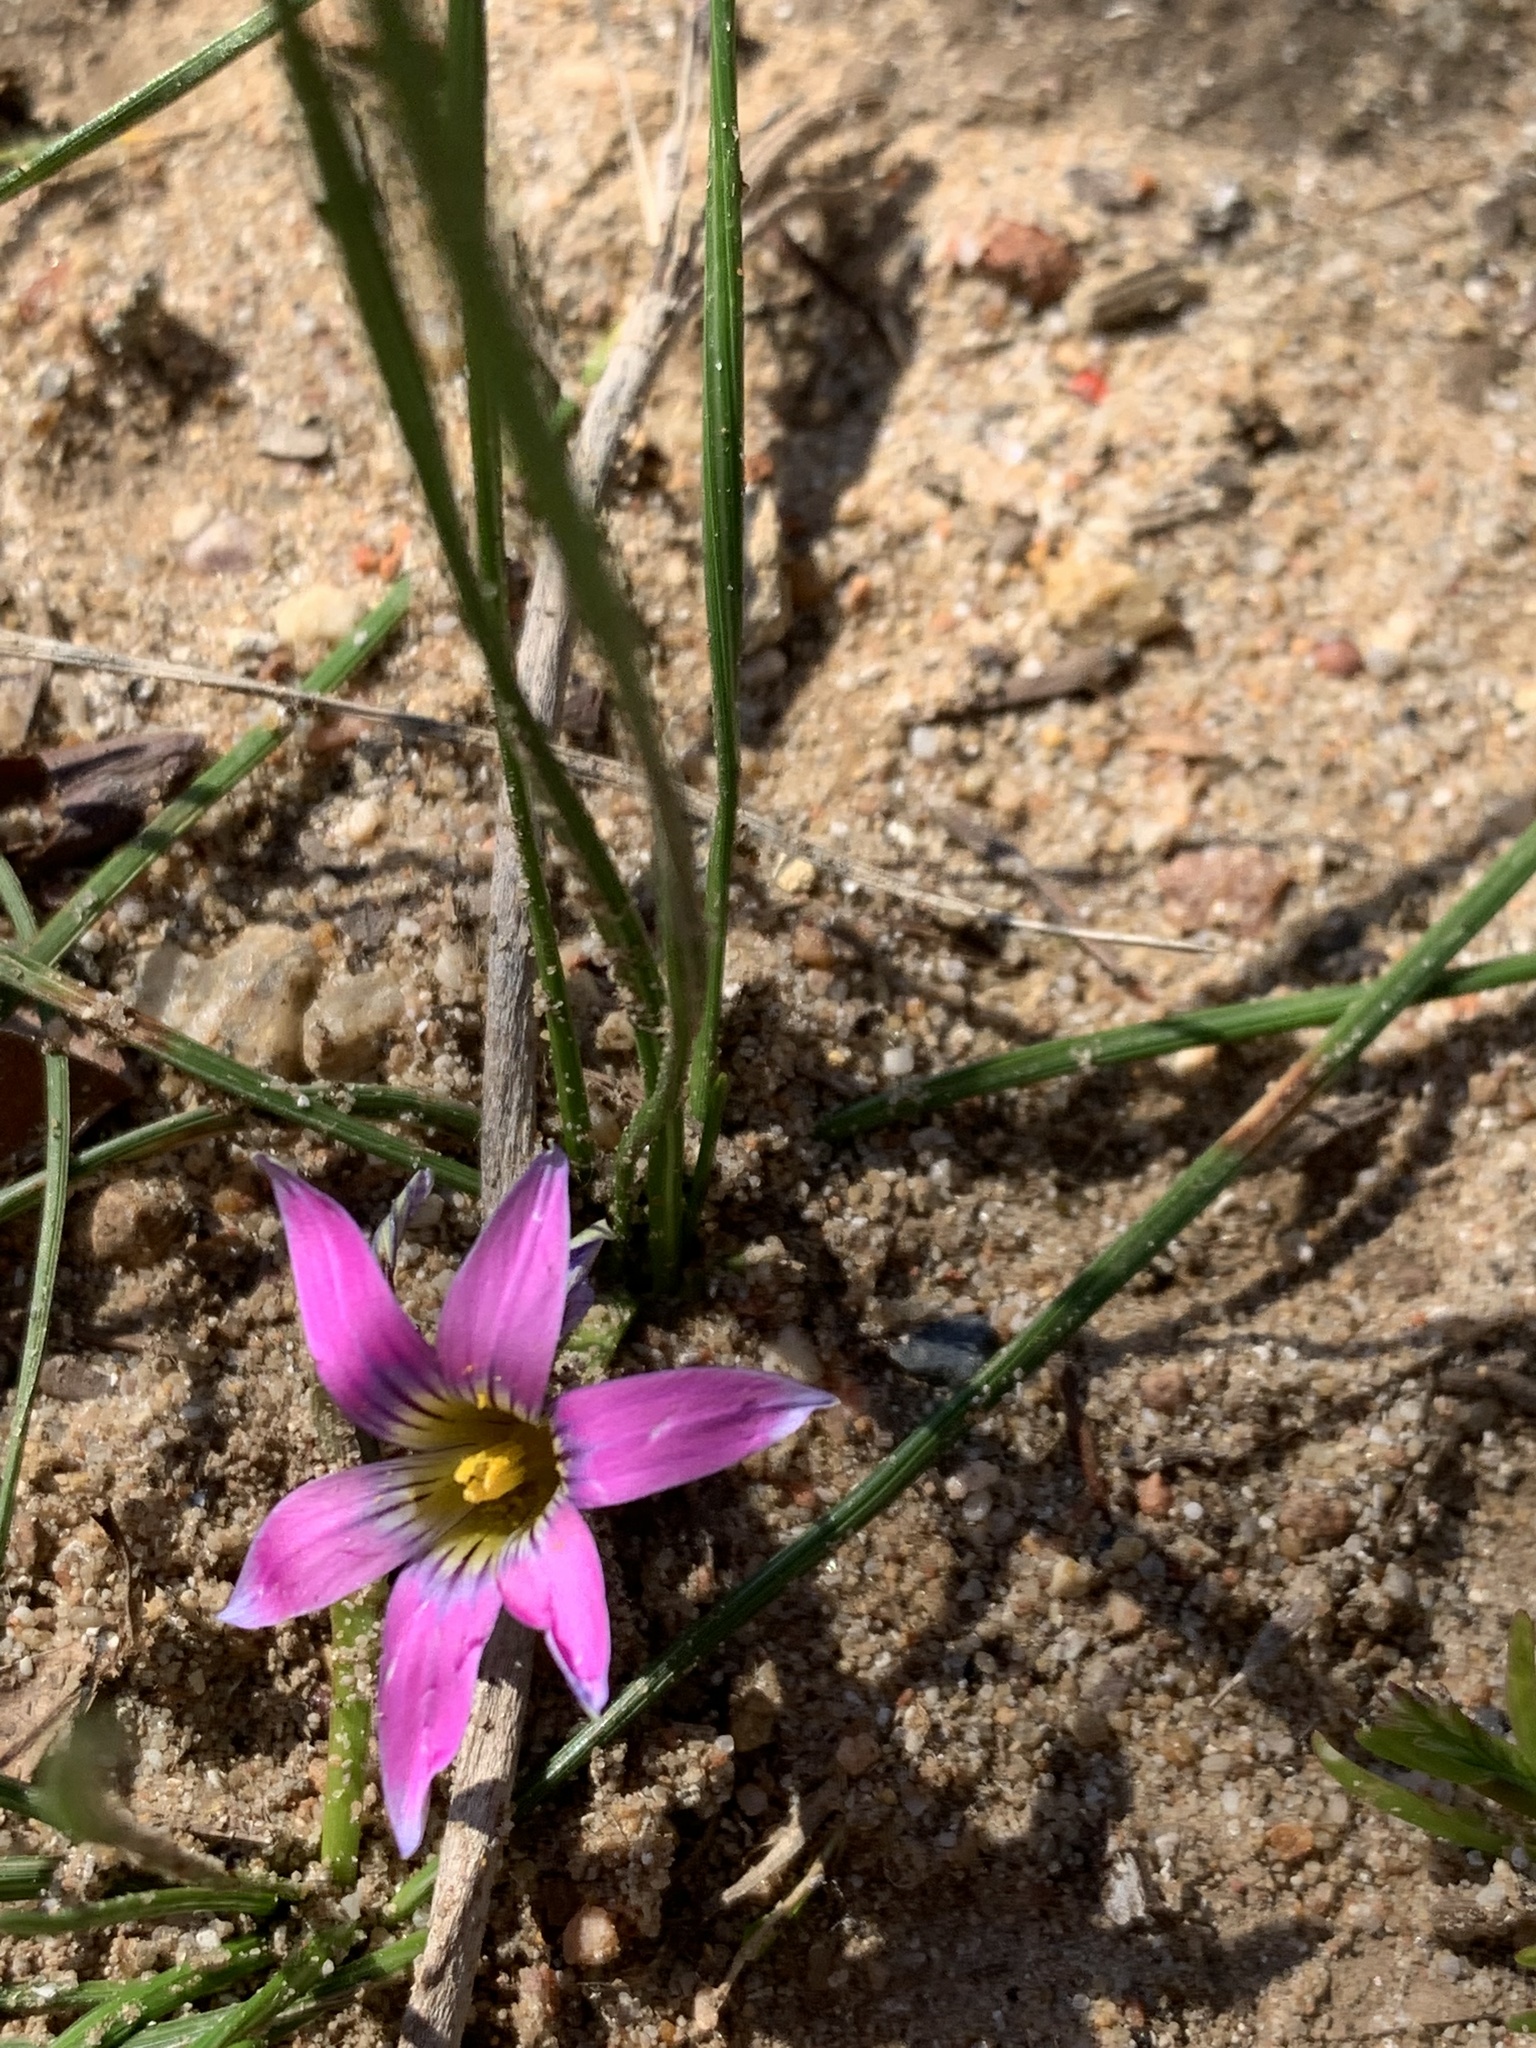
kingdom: Plantae
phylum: Tracheophyta
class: Liliopsida
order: Asparagales
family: Iridaceae
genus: Romulea
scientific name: Romulea rosea
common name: Oniongrass
